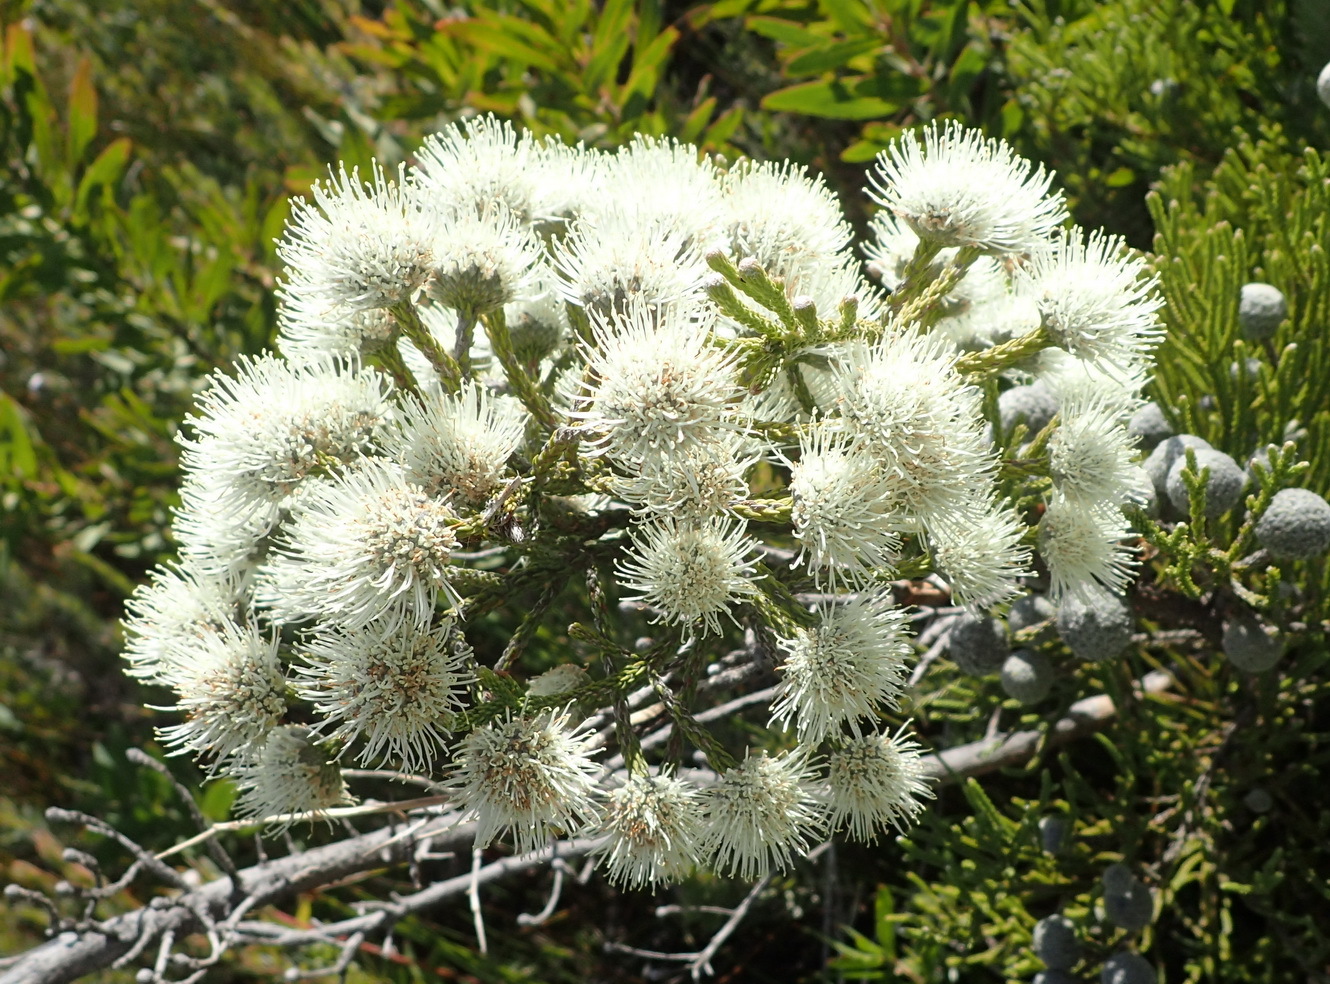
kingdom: Plantae
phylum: Tracheophyta
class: Magnoliopsida
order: Bruniales
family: Bruniaceae
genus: Brunia
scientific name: Brunia noduliflora
